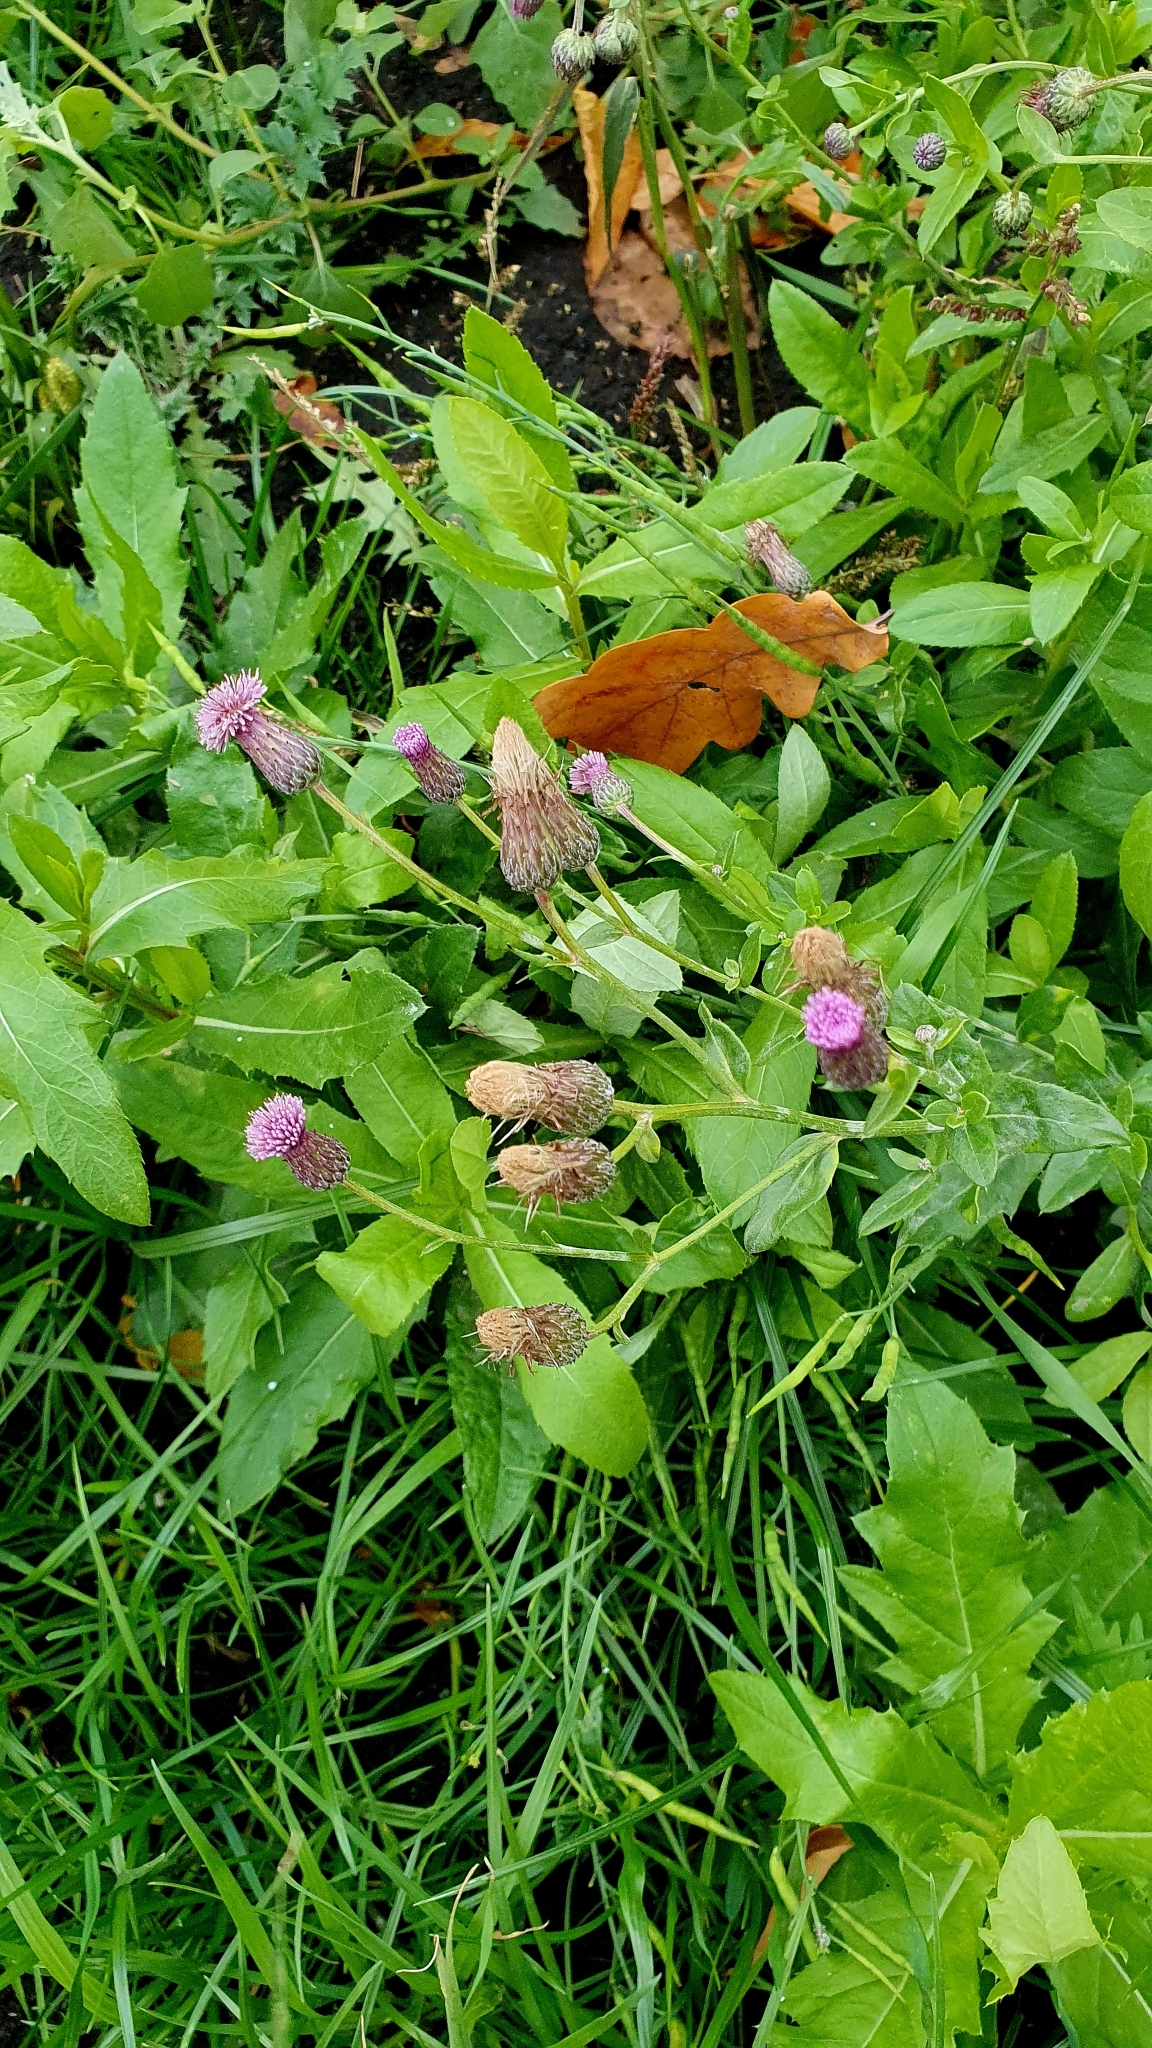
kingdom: Plantae
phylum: Tracheophyta
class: Magnoliopsida
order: Asterales
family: Asteraceae
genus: Cirsium
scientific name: Cirsium arvense
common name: Creeping thistle
